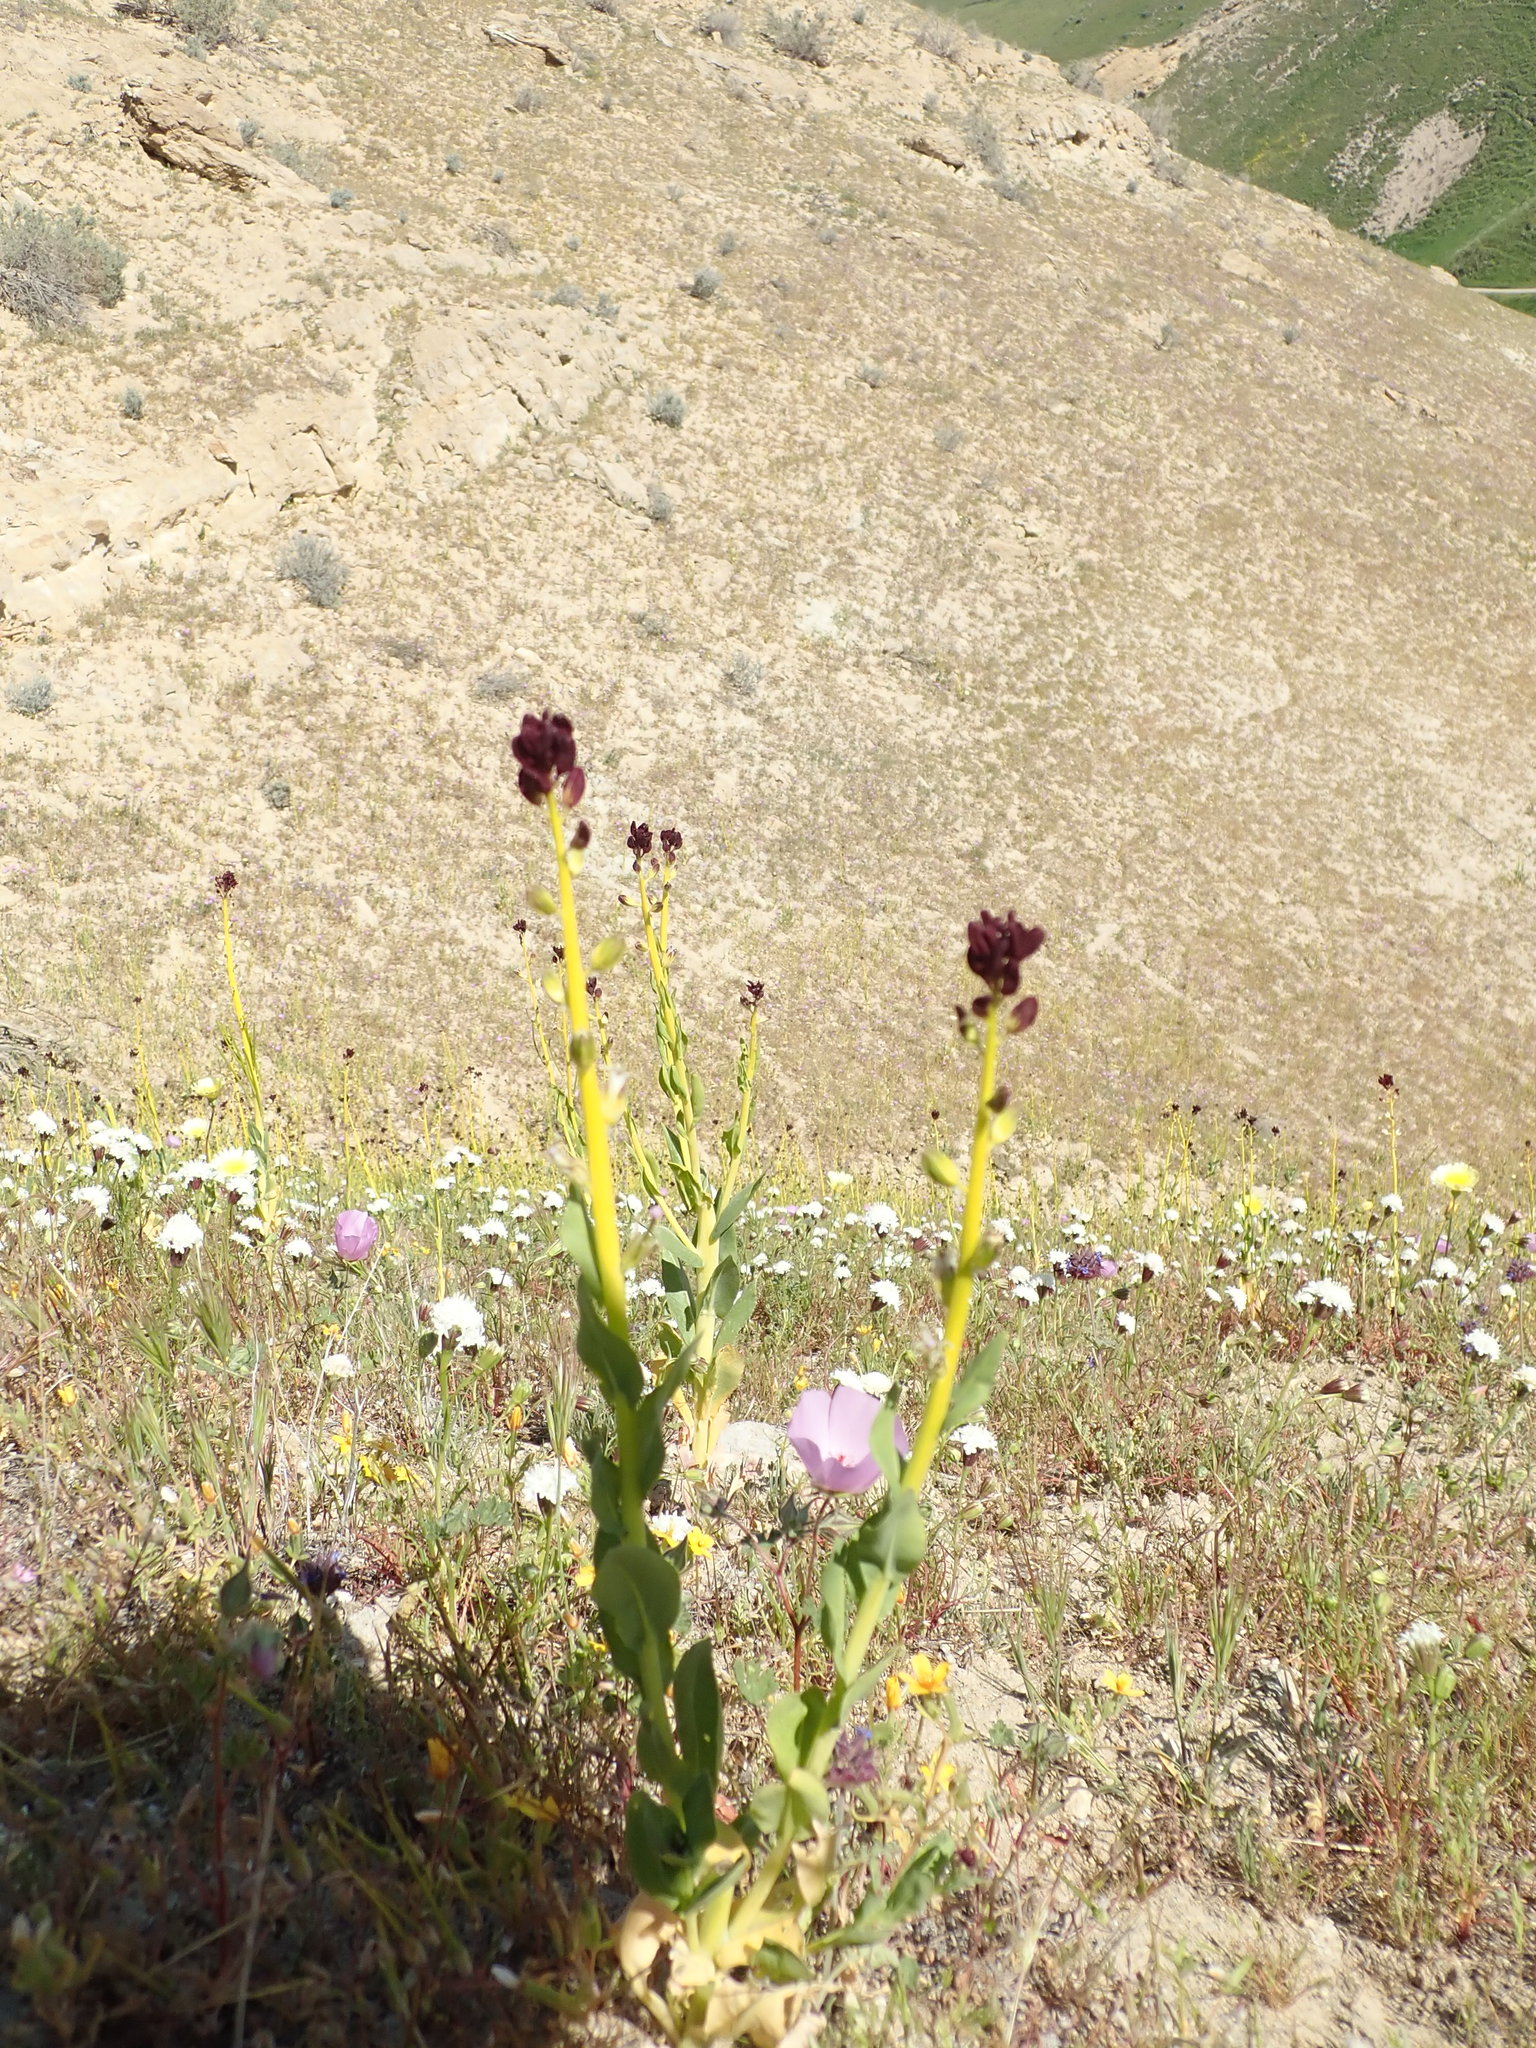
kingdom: Plantae
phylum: Tracheophyta
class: Magnoliopsida
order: Brassicales
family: Brassicaceae
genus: Streptanthus
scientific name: Streptanthus inflatus
